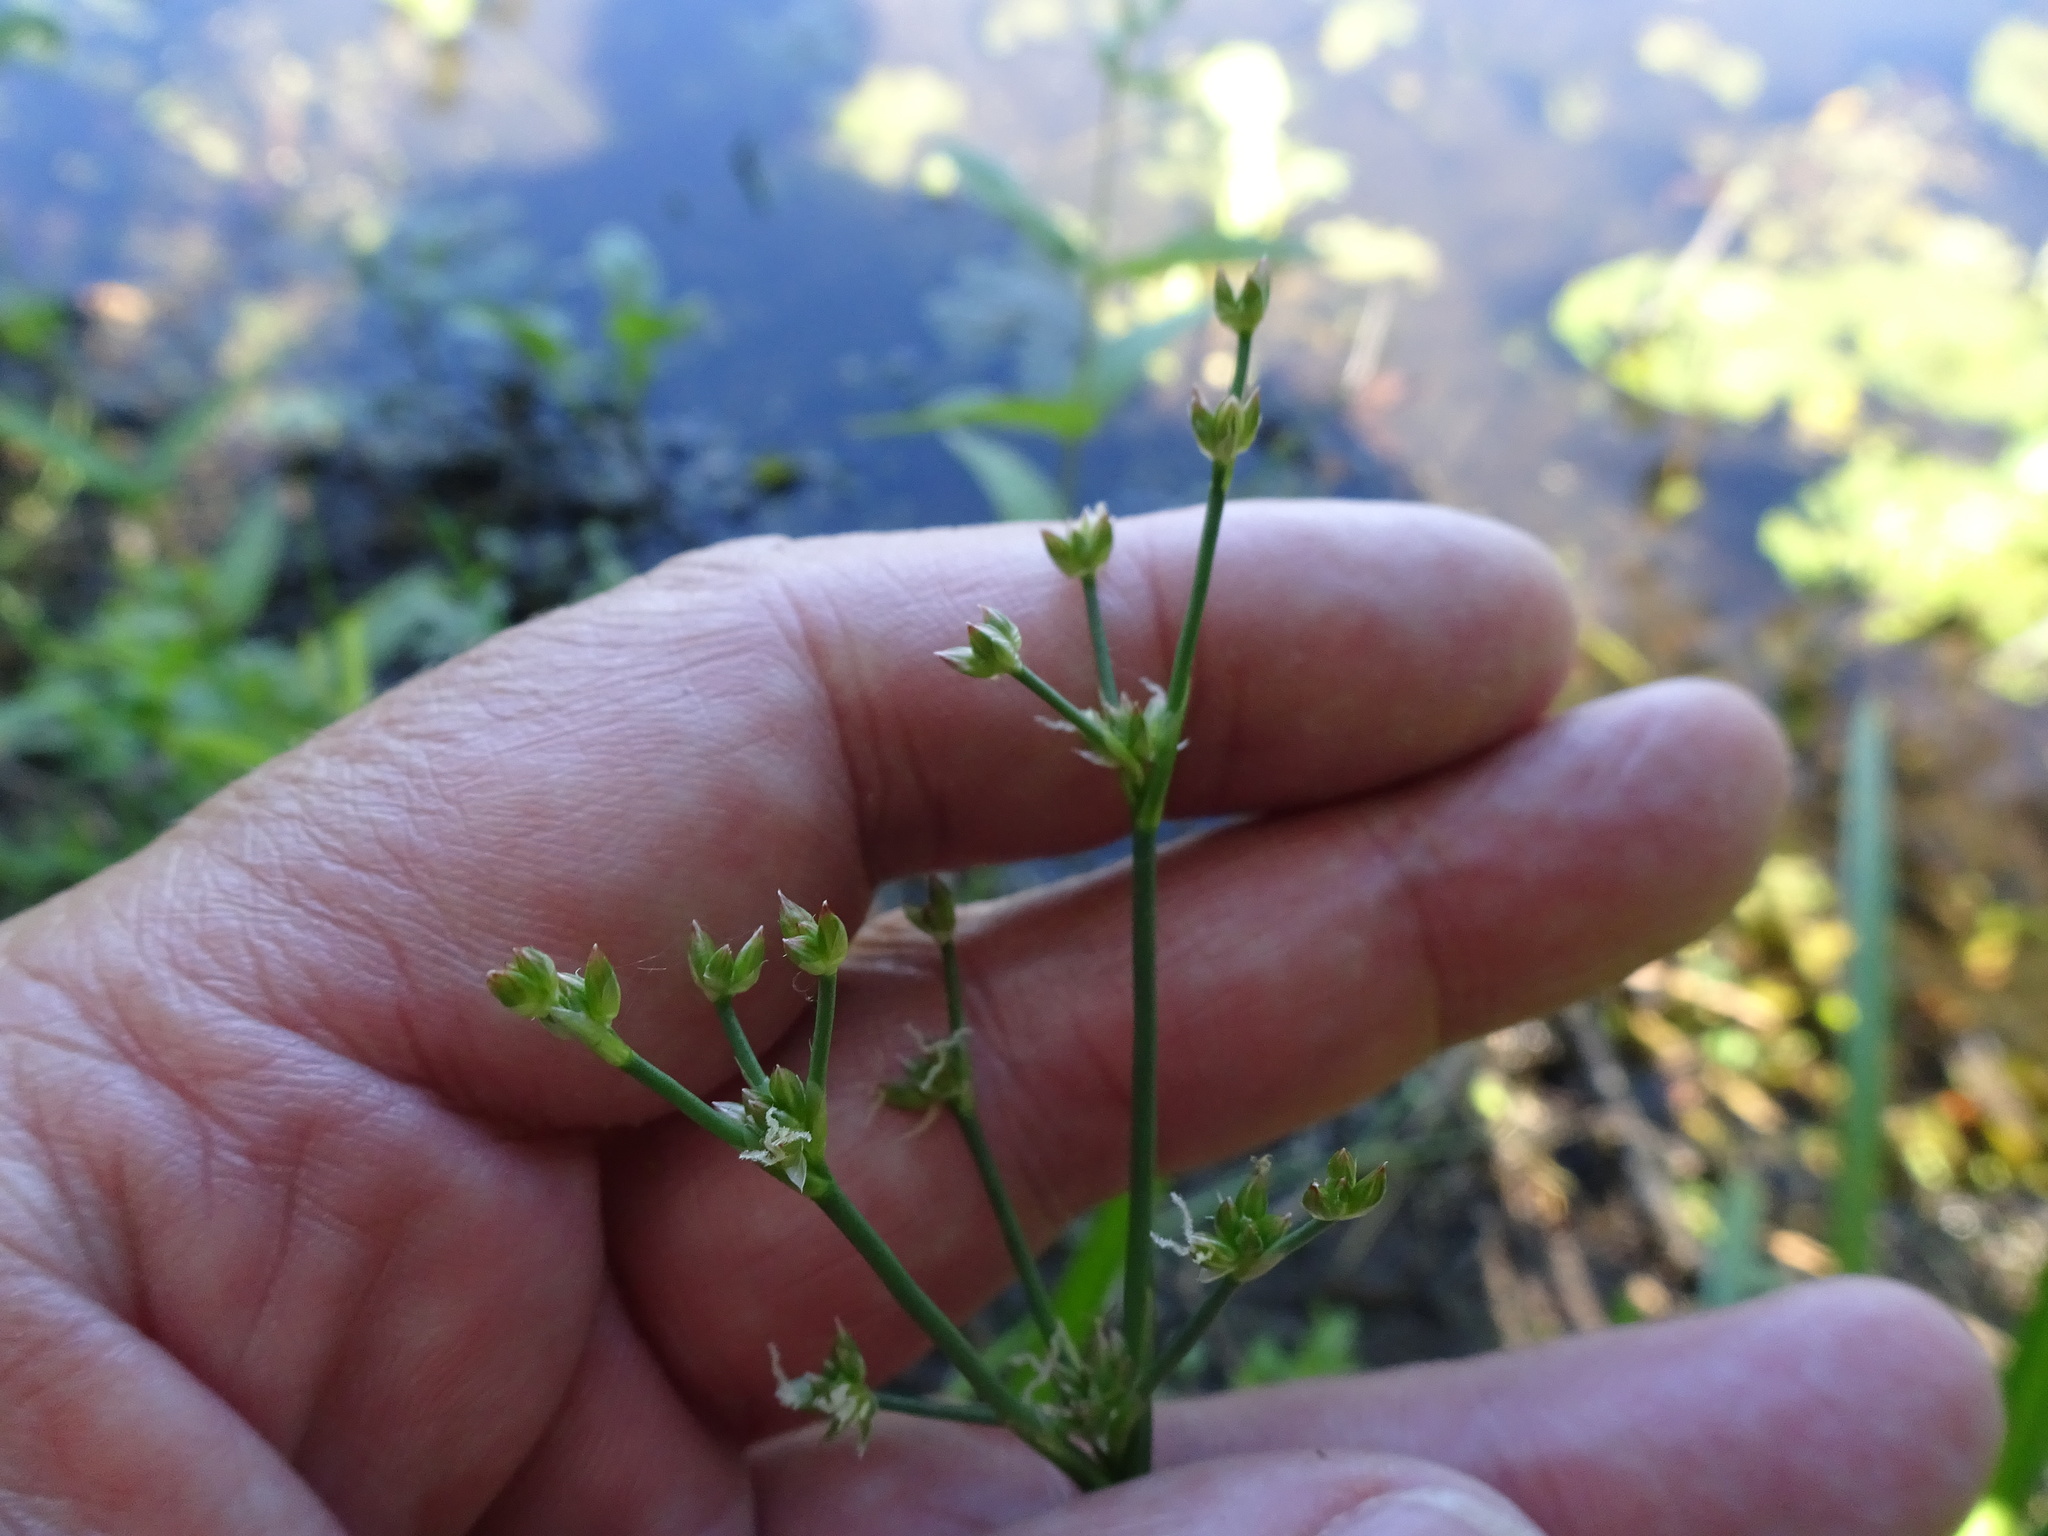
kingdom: Plantae
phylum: Tracheophyta
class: Liliopsida
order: Poales
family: Juncaceae
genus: Juncus
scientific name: Juncus articulatus
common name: Jointed rush
